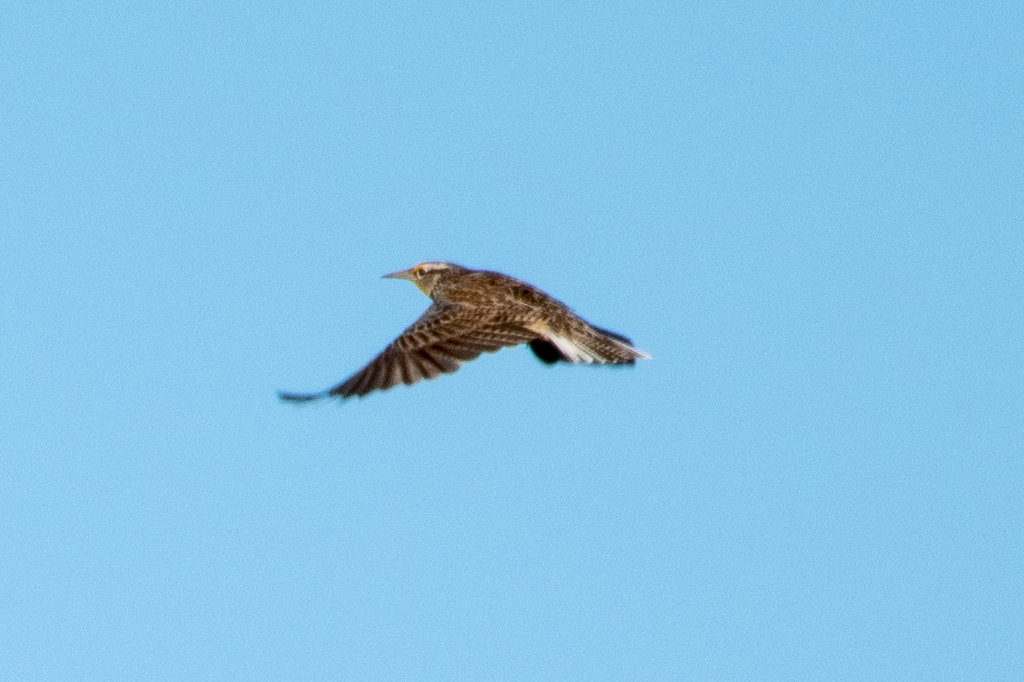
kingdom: Animalia
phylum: Chordata
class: Aves
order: Passeriformes
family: Icteridae
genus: Sturnella
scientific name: Sturnella neglecta
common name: Western meadowlark
